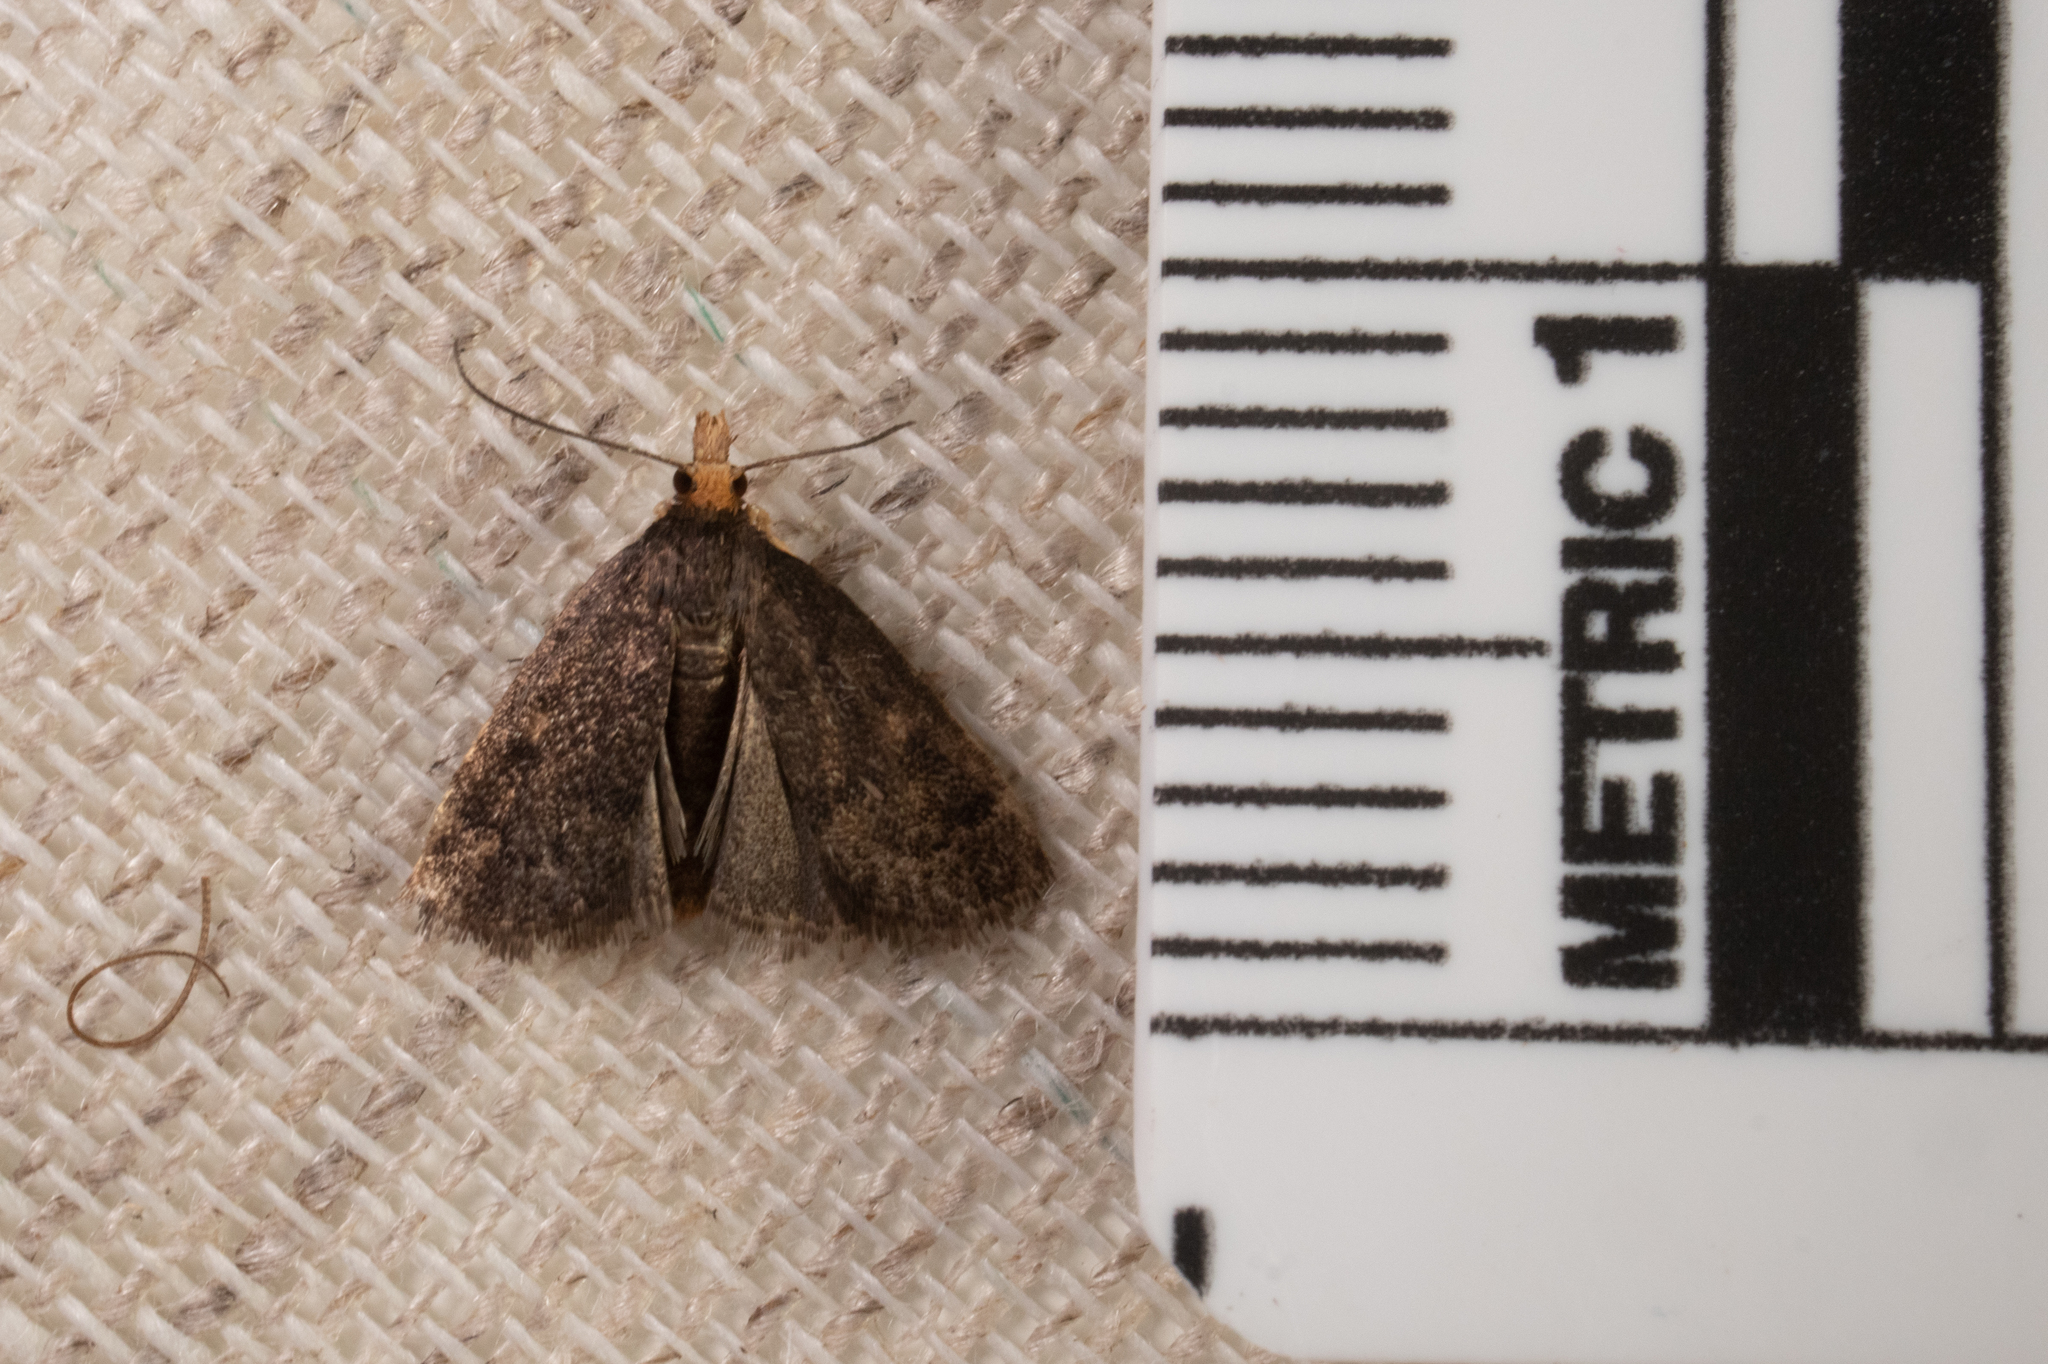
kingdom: Animalia
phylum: Arthropoda
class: Insecta
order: Lepidoptera
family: Crambidae
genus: Pyrausta
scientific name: Pyrausta merrickalis
